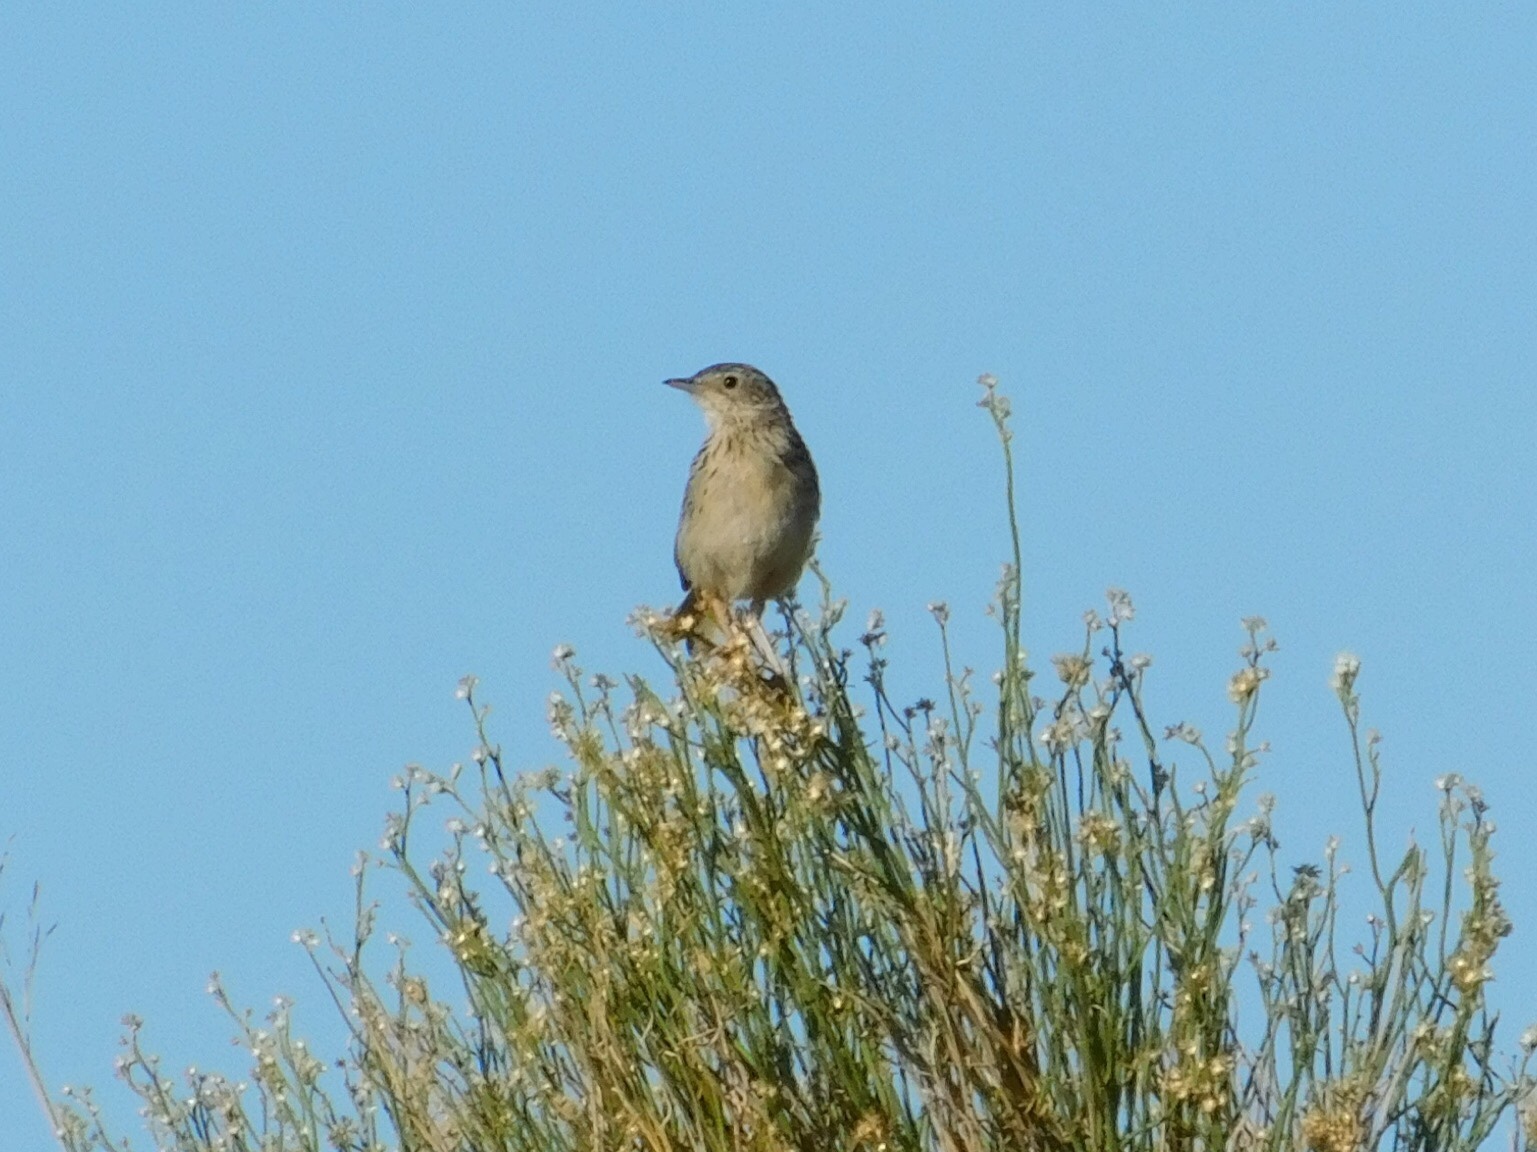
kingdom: Animalia
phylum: Chordata
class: Aves
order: Passeriformes
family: Motacillidae
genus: Anthus
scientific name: Anthus hellmayri
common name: Hellmayr's pipit
